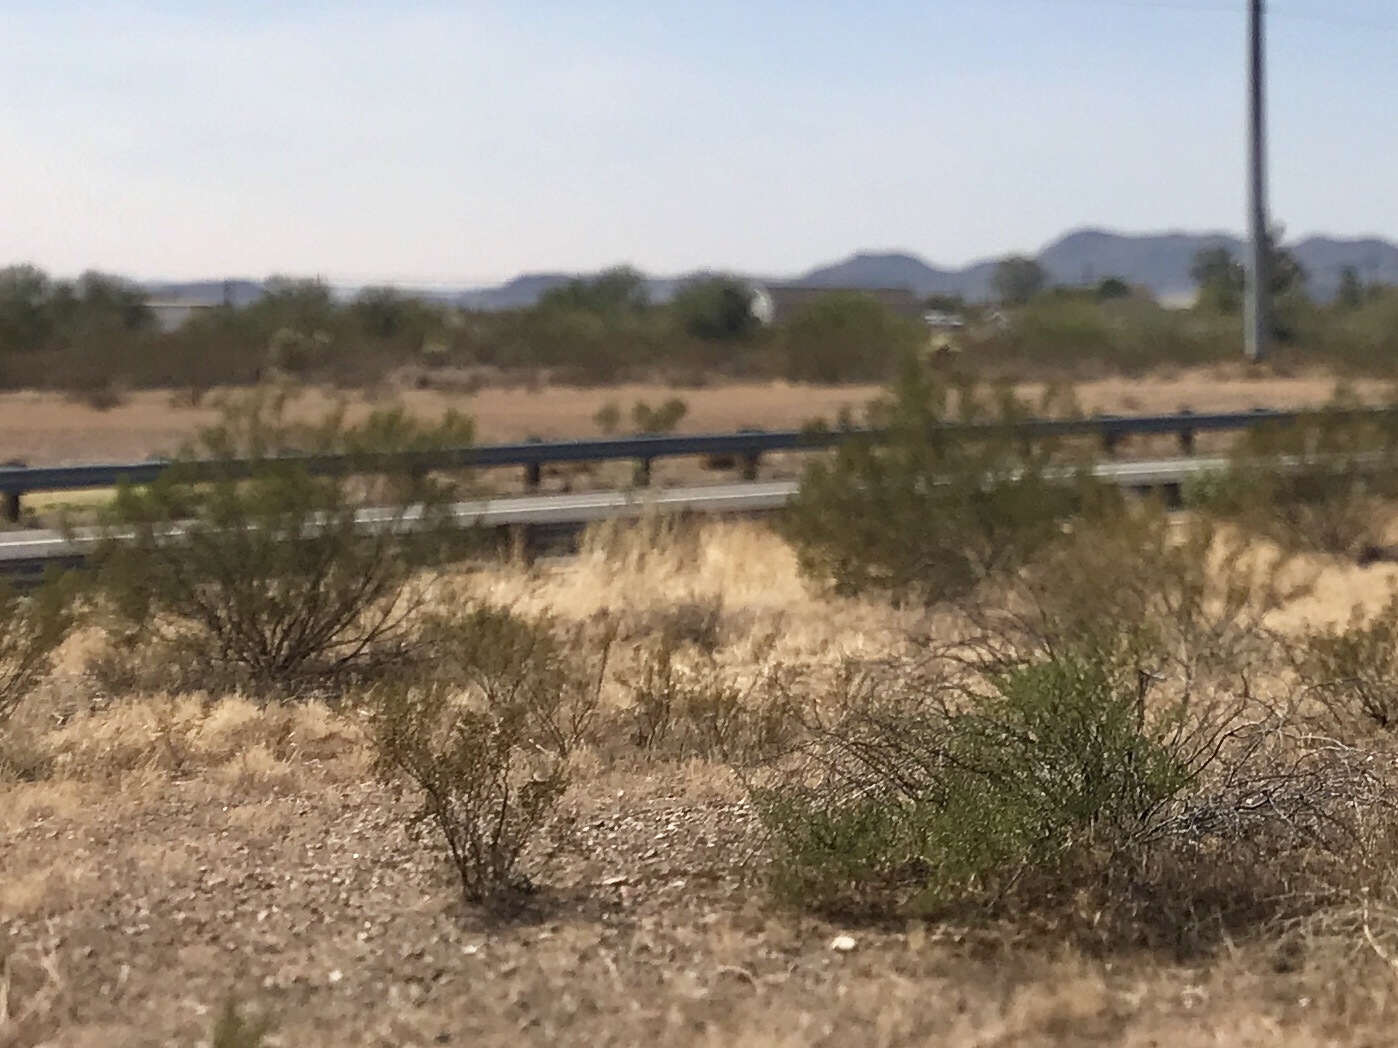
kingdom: Plantae
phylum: Tracheophyta
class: Magnoliopsida
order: Zygophyllales
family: Zygophyllaceae
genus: Larrea
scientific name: Larrea tridentata
